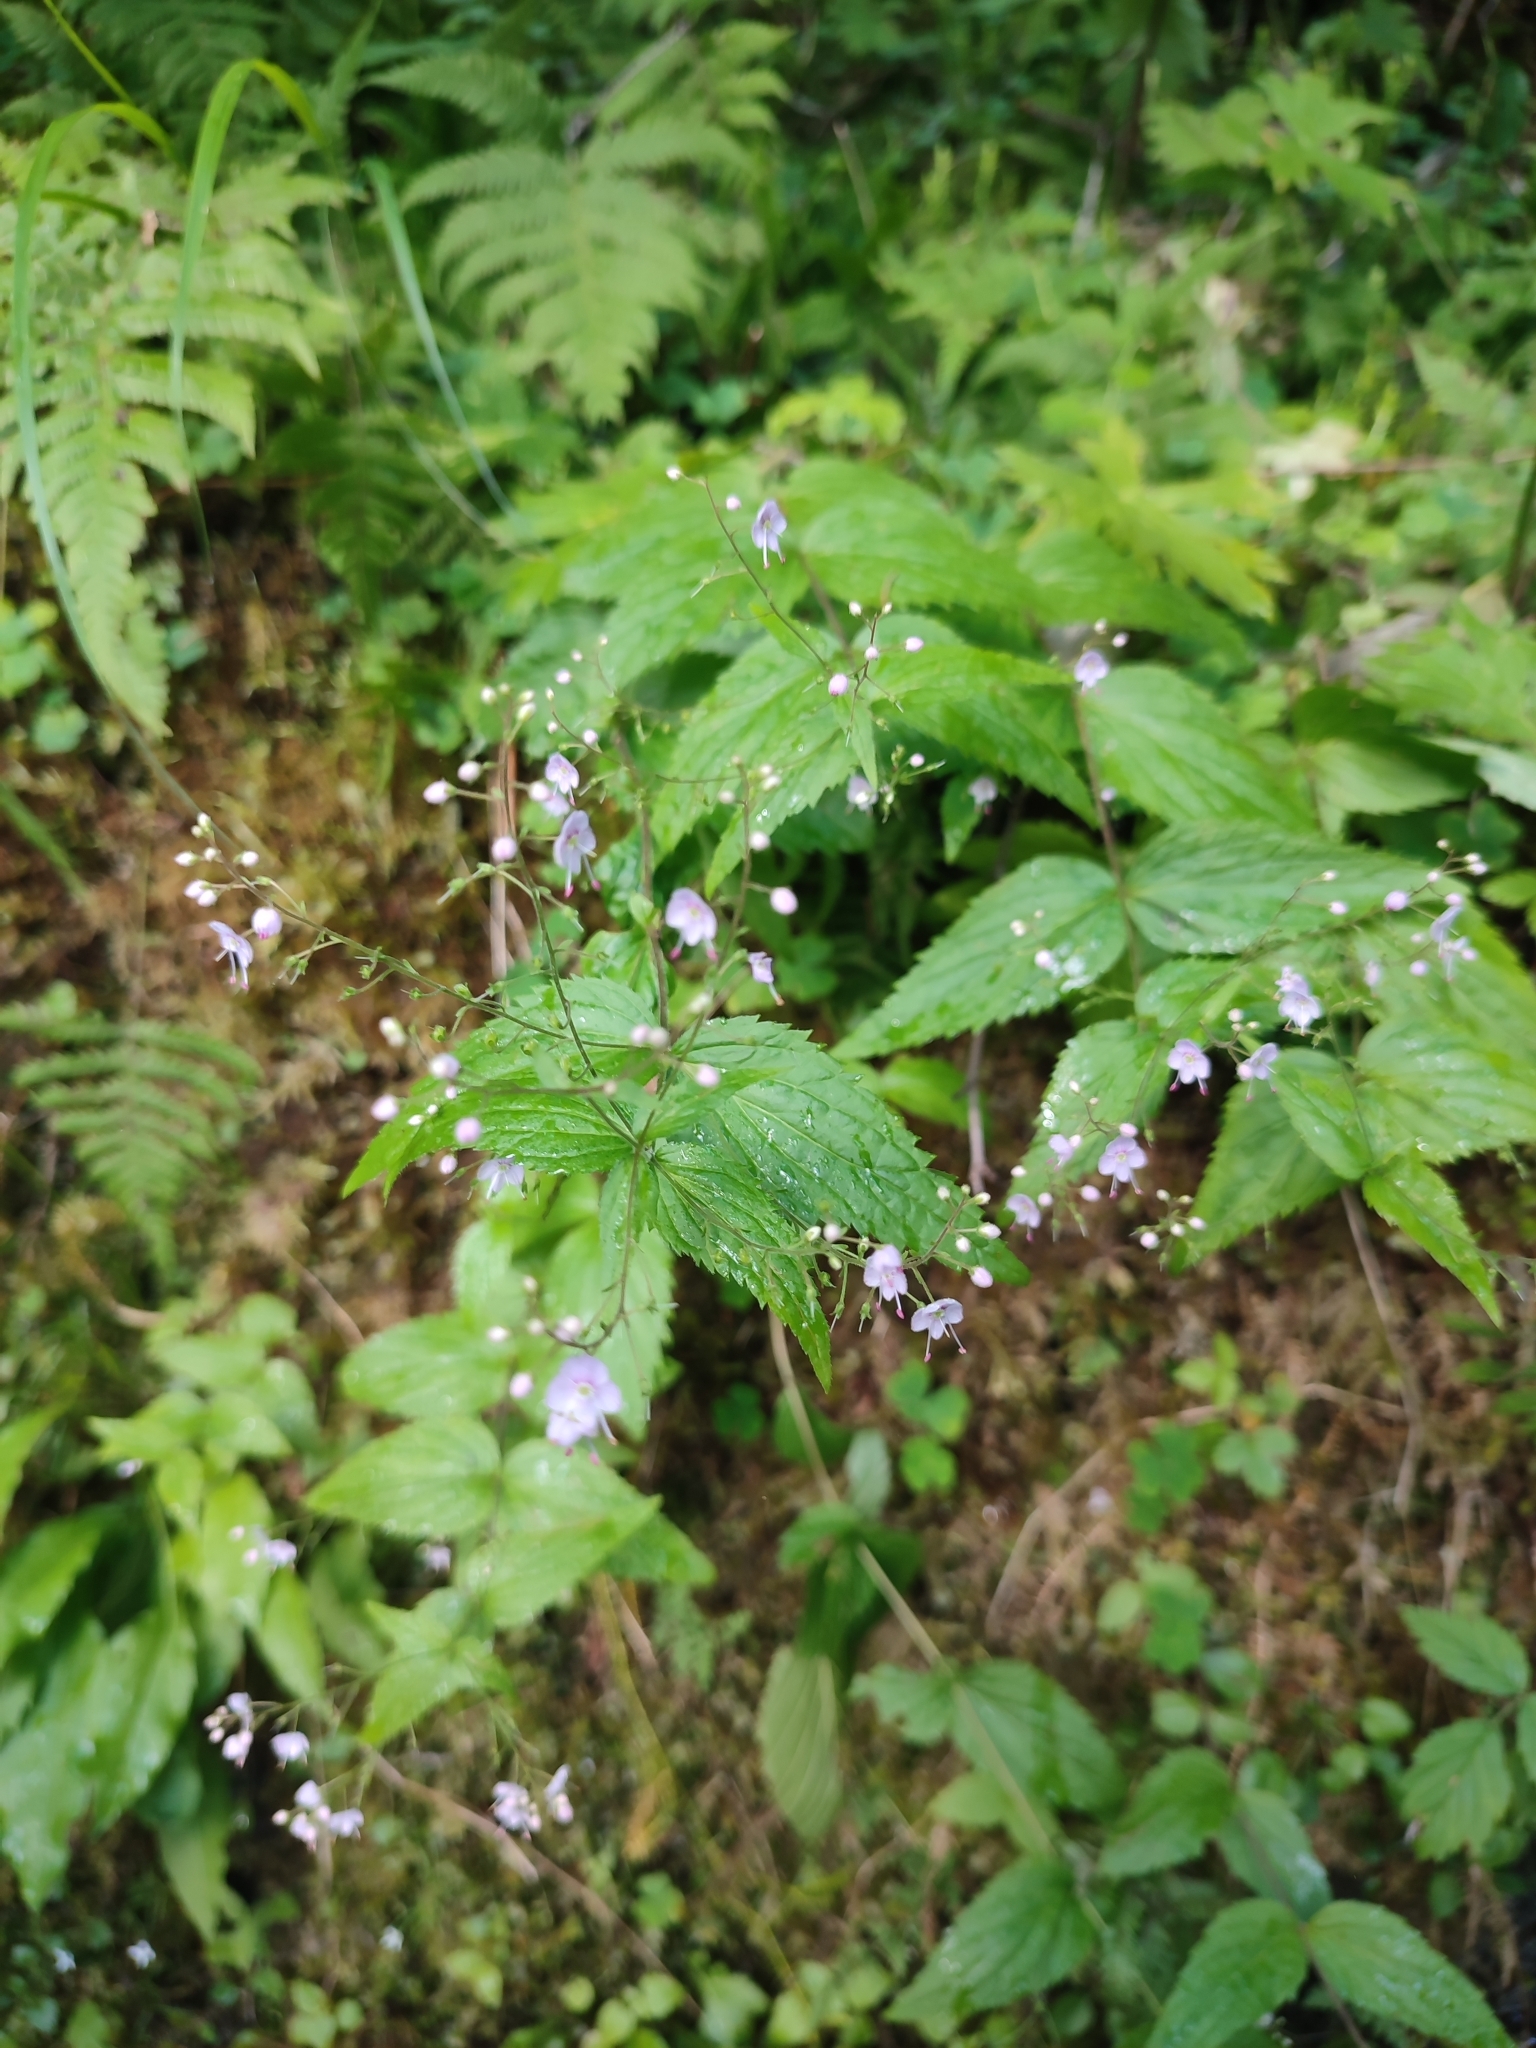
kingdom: Plantae
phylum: Tracheophyta
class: Magnoliopsida
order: Lamiales
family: Plantaginaceae
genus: Veronica
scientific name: Veronica urticifolia
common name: Nettle-leaf speedwell
